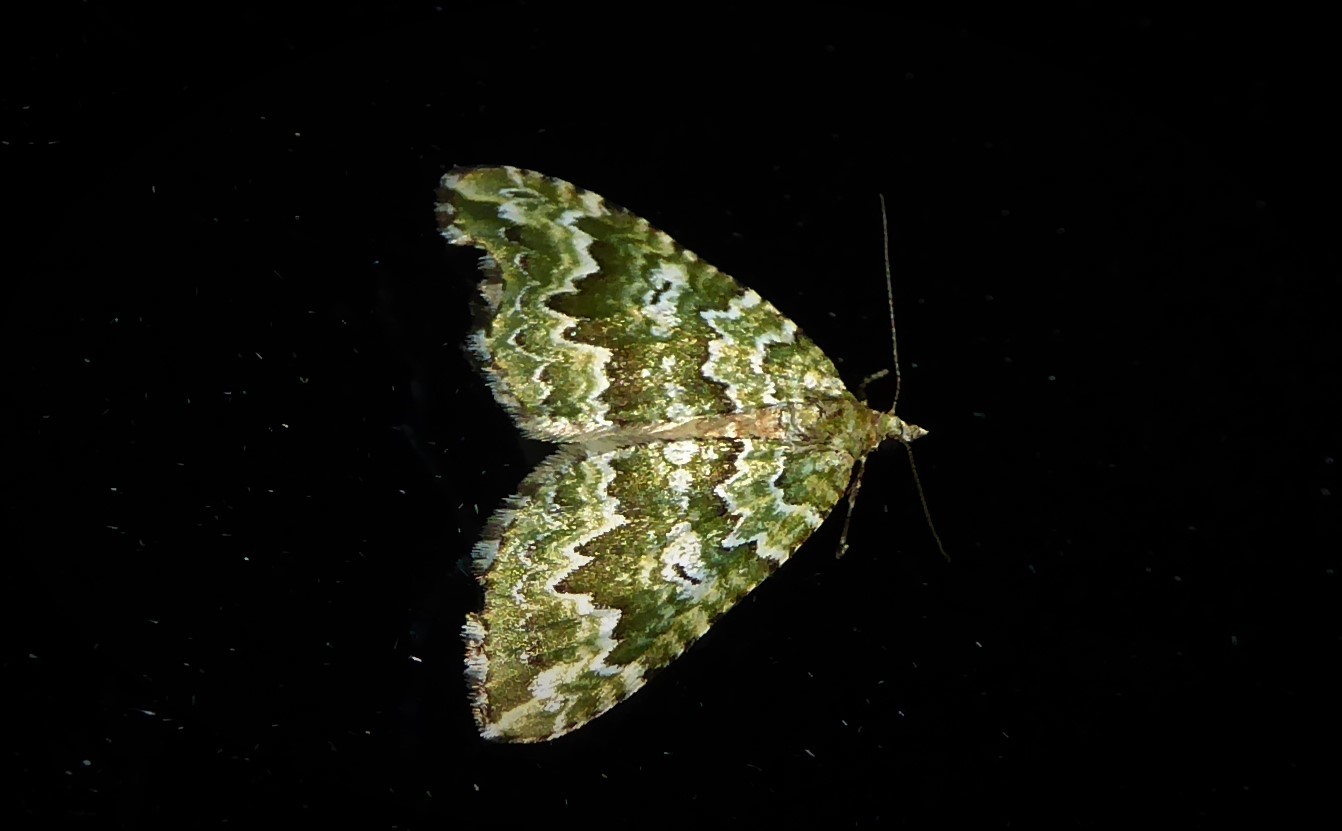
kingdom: Animalia
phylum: Arthropoda
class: Insecta
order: Lepidoptera
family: Geometridae
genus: Asaphodes
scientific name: Asaphodes beata
